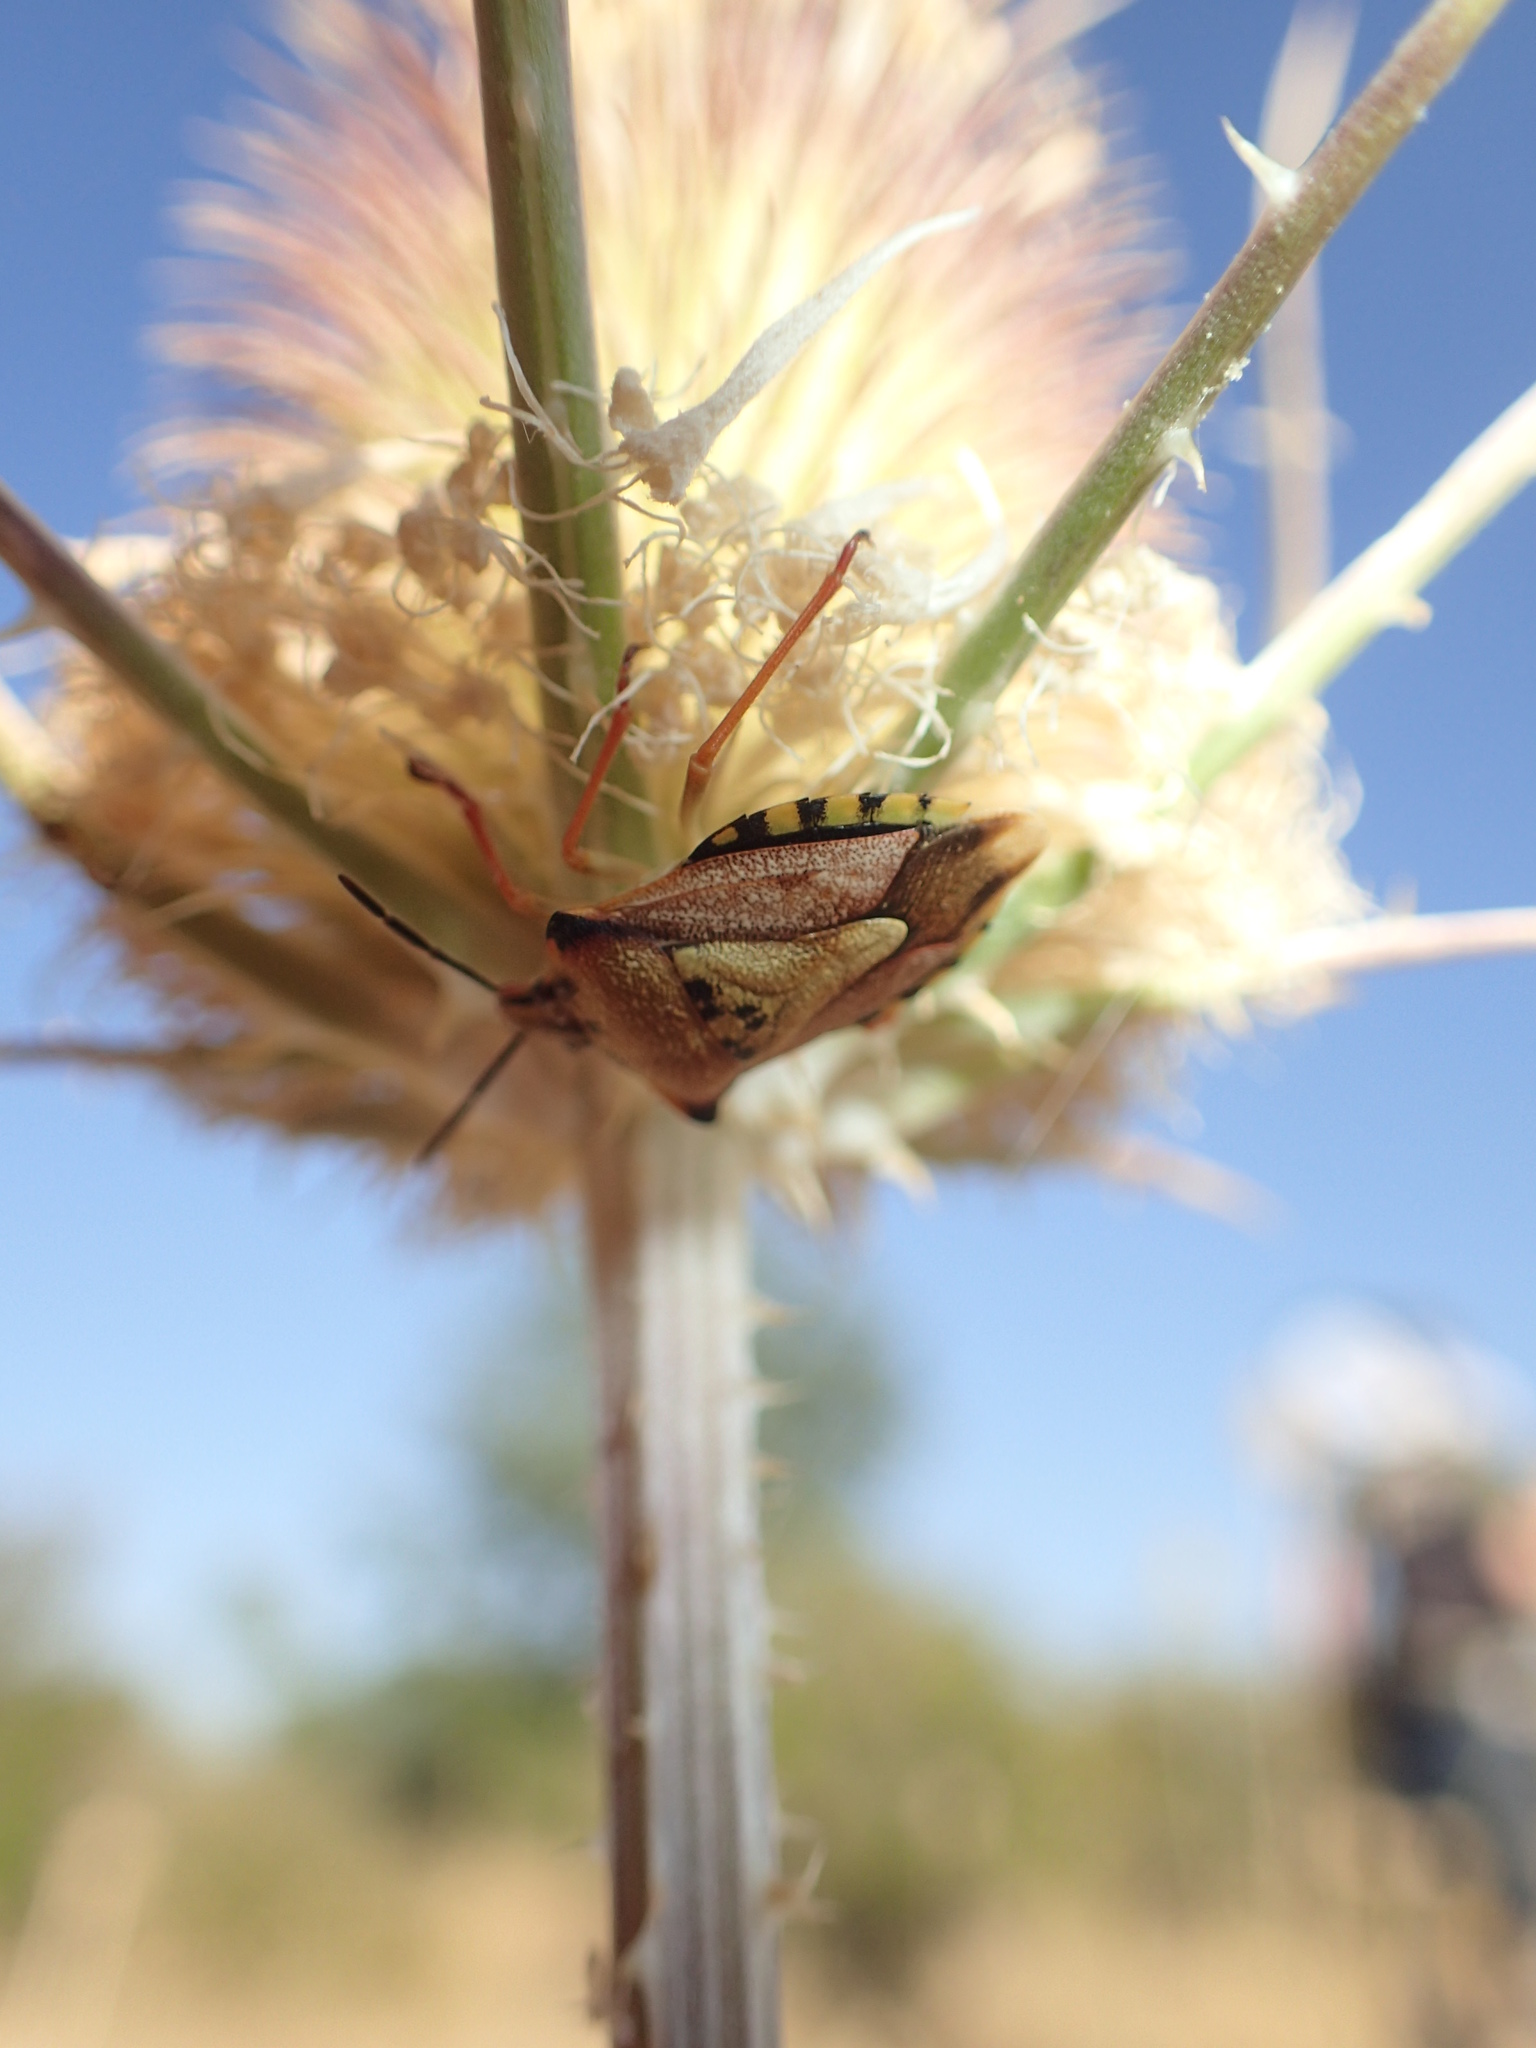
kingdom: Animalia
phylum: Arthropoda
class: Insecta
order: Hemiptera
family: Pentatomidae
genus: Carpocoris
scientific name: Carpocoris mediterraneus
